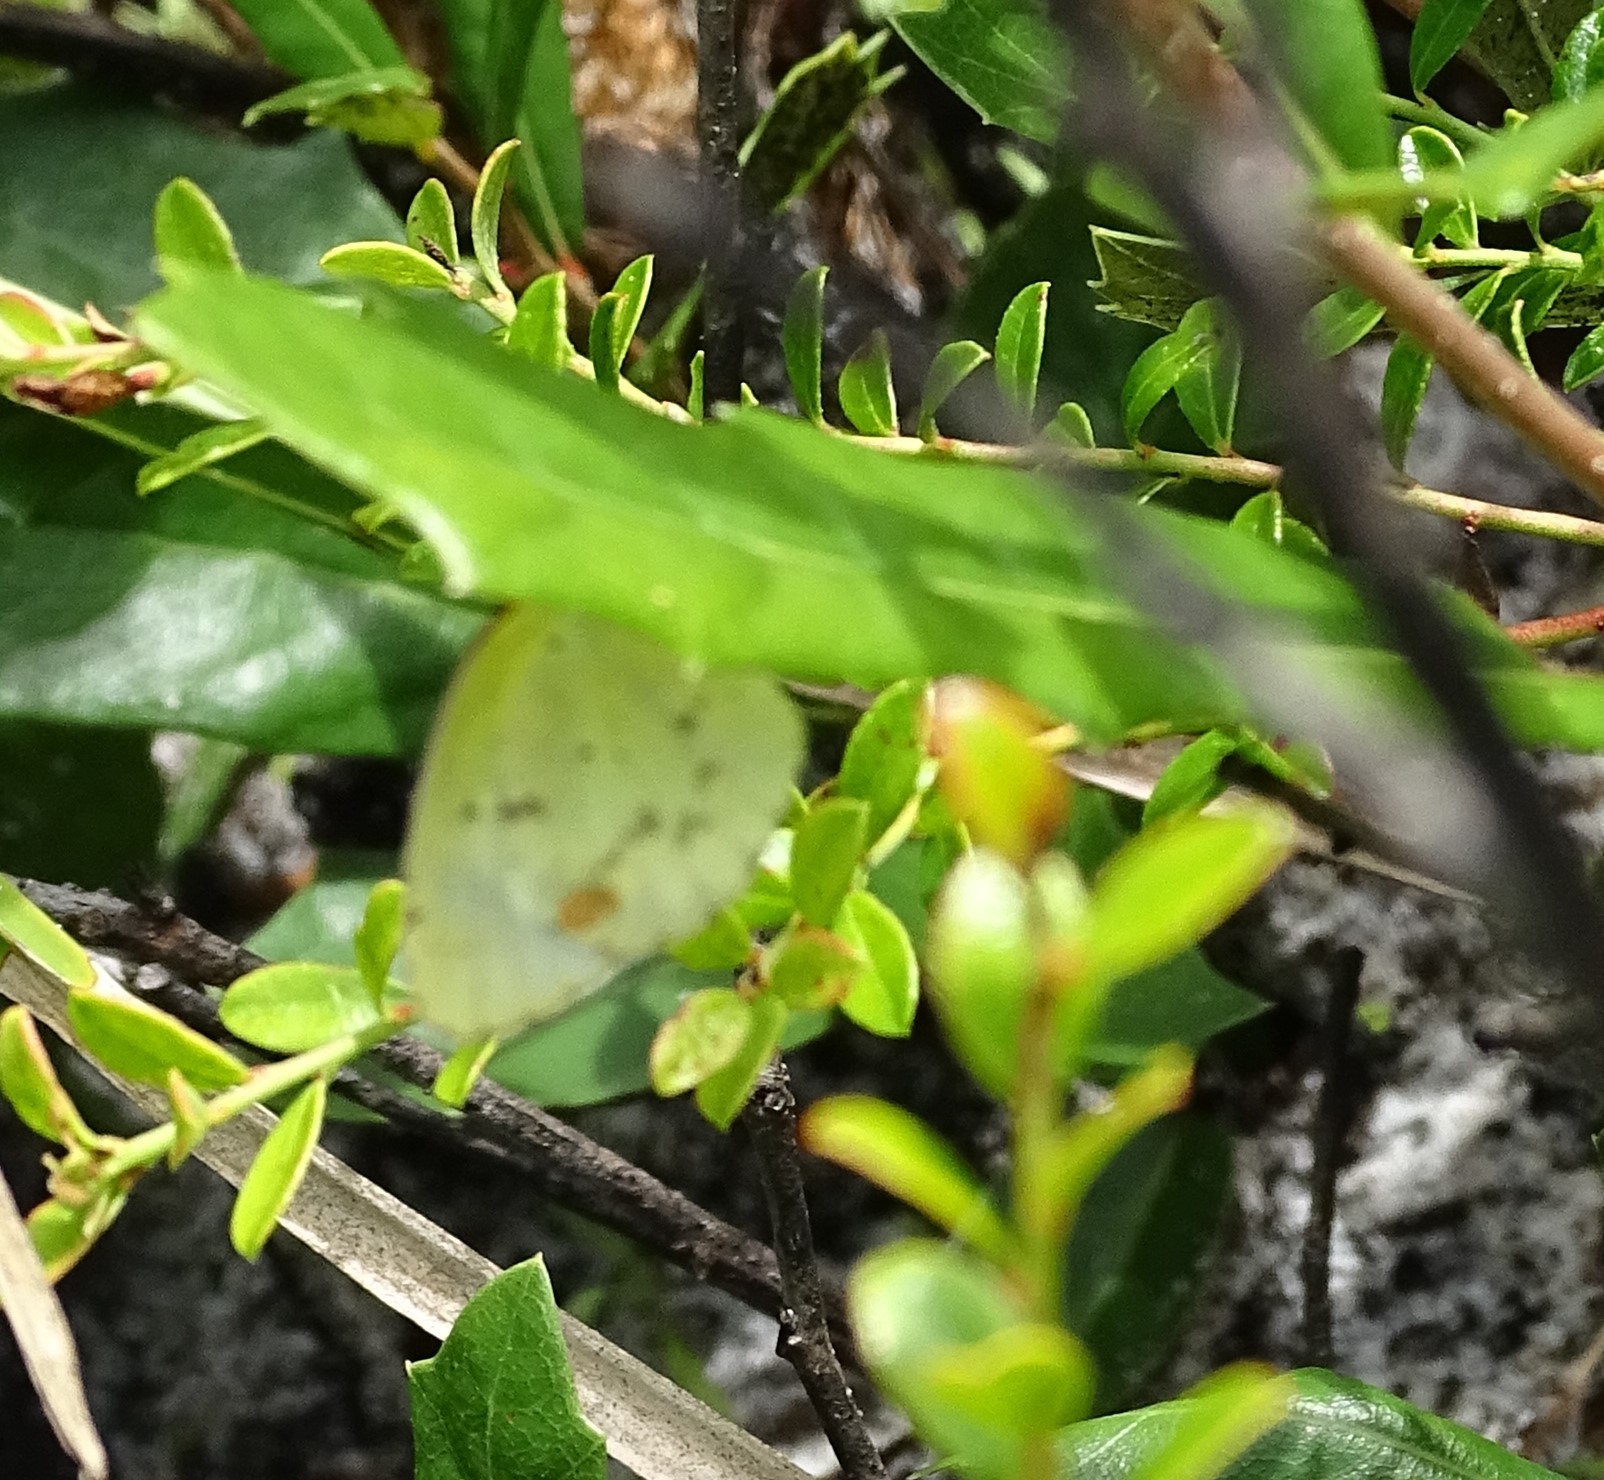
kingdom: Animalia
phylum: Arthropoda
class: Insecta
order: Lepidoptera
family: Pieridae
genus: Pyrisitia
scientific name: Pyrisitia lisa
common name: Little yellow
